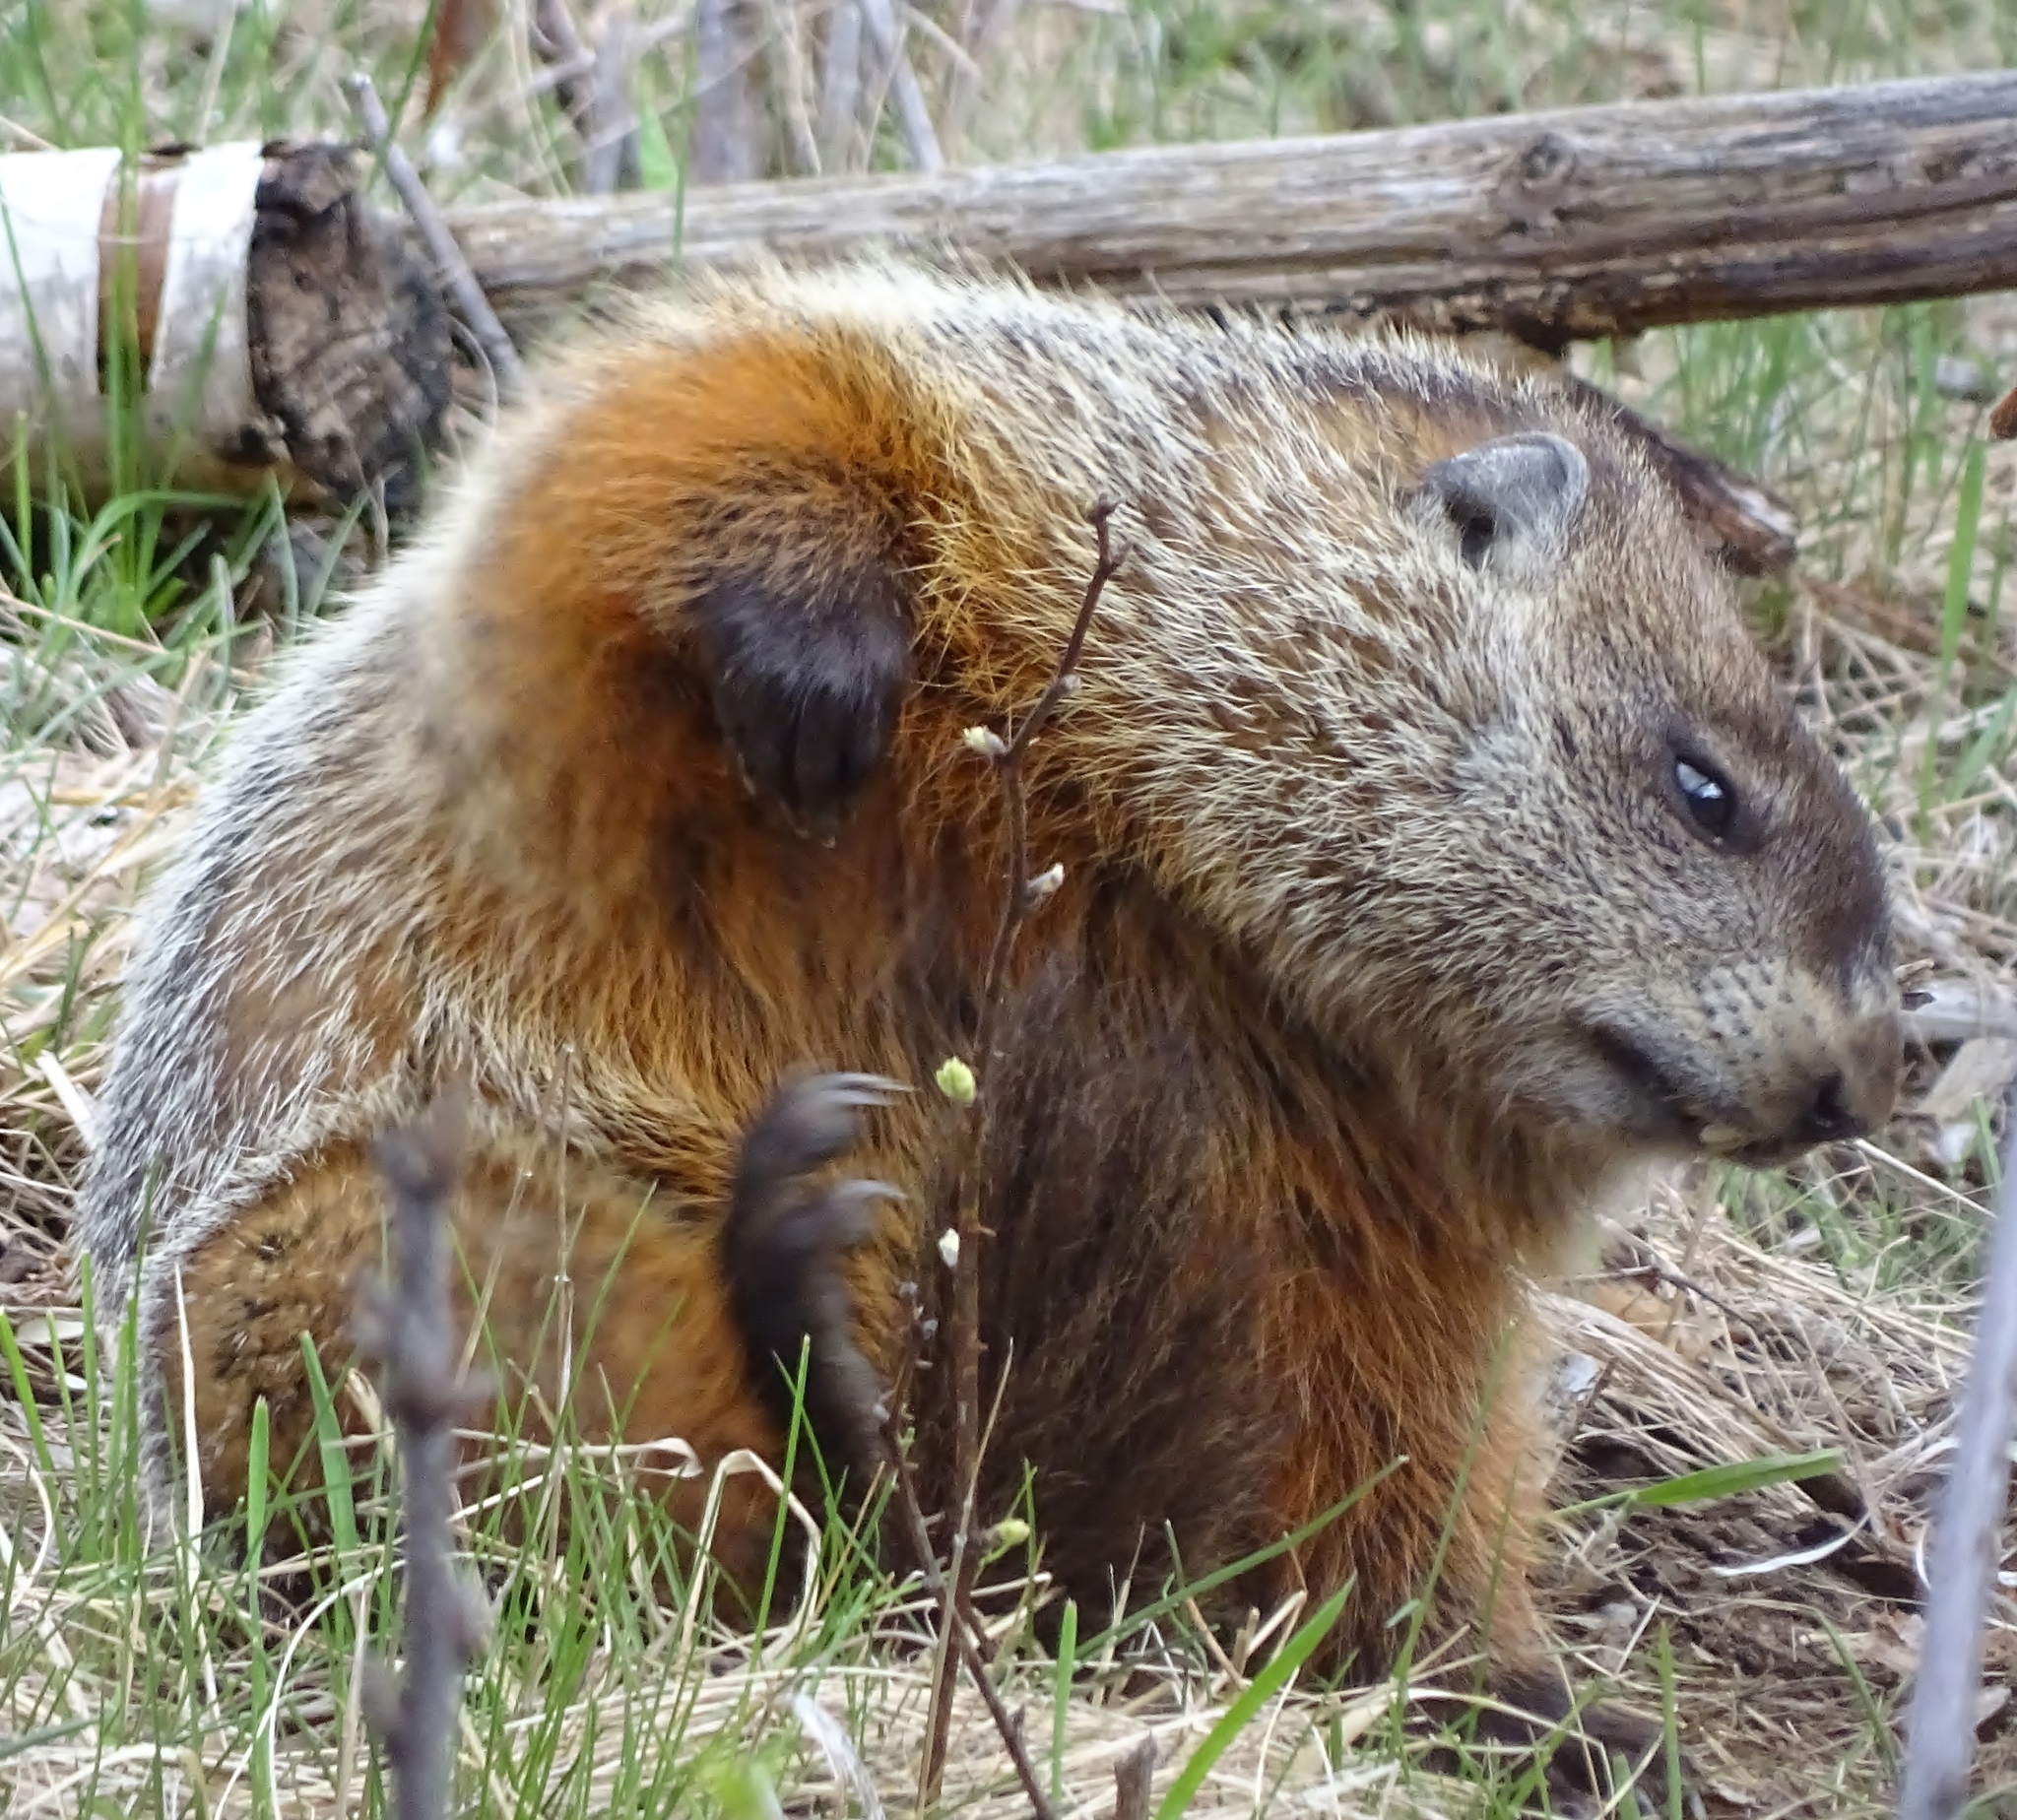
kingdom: Animalia
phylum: Chordata
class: Mammalia
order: Rodentia
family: Sciuridae
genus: Marmota
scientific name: Marmota monax
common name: Groundhog
